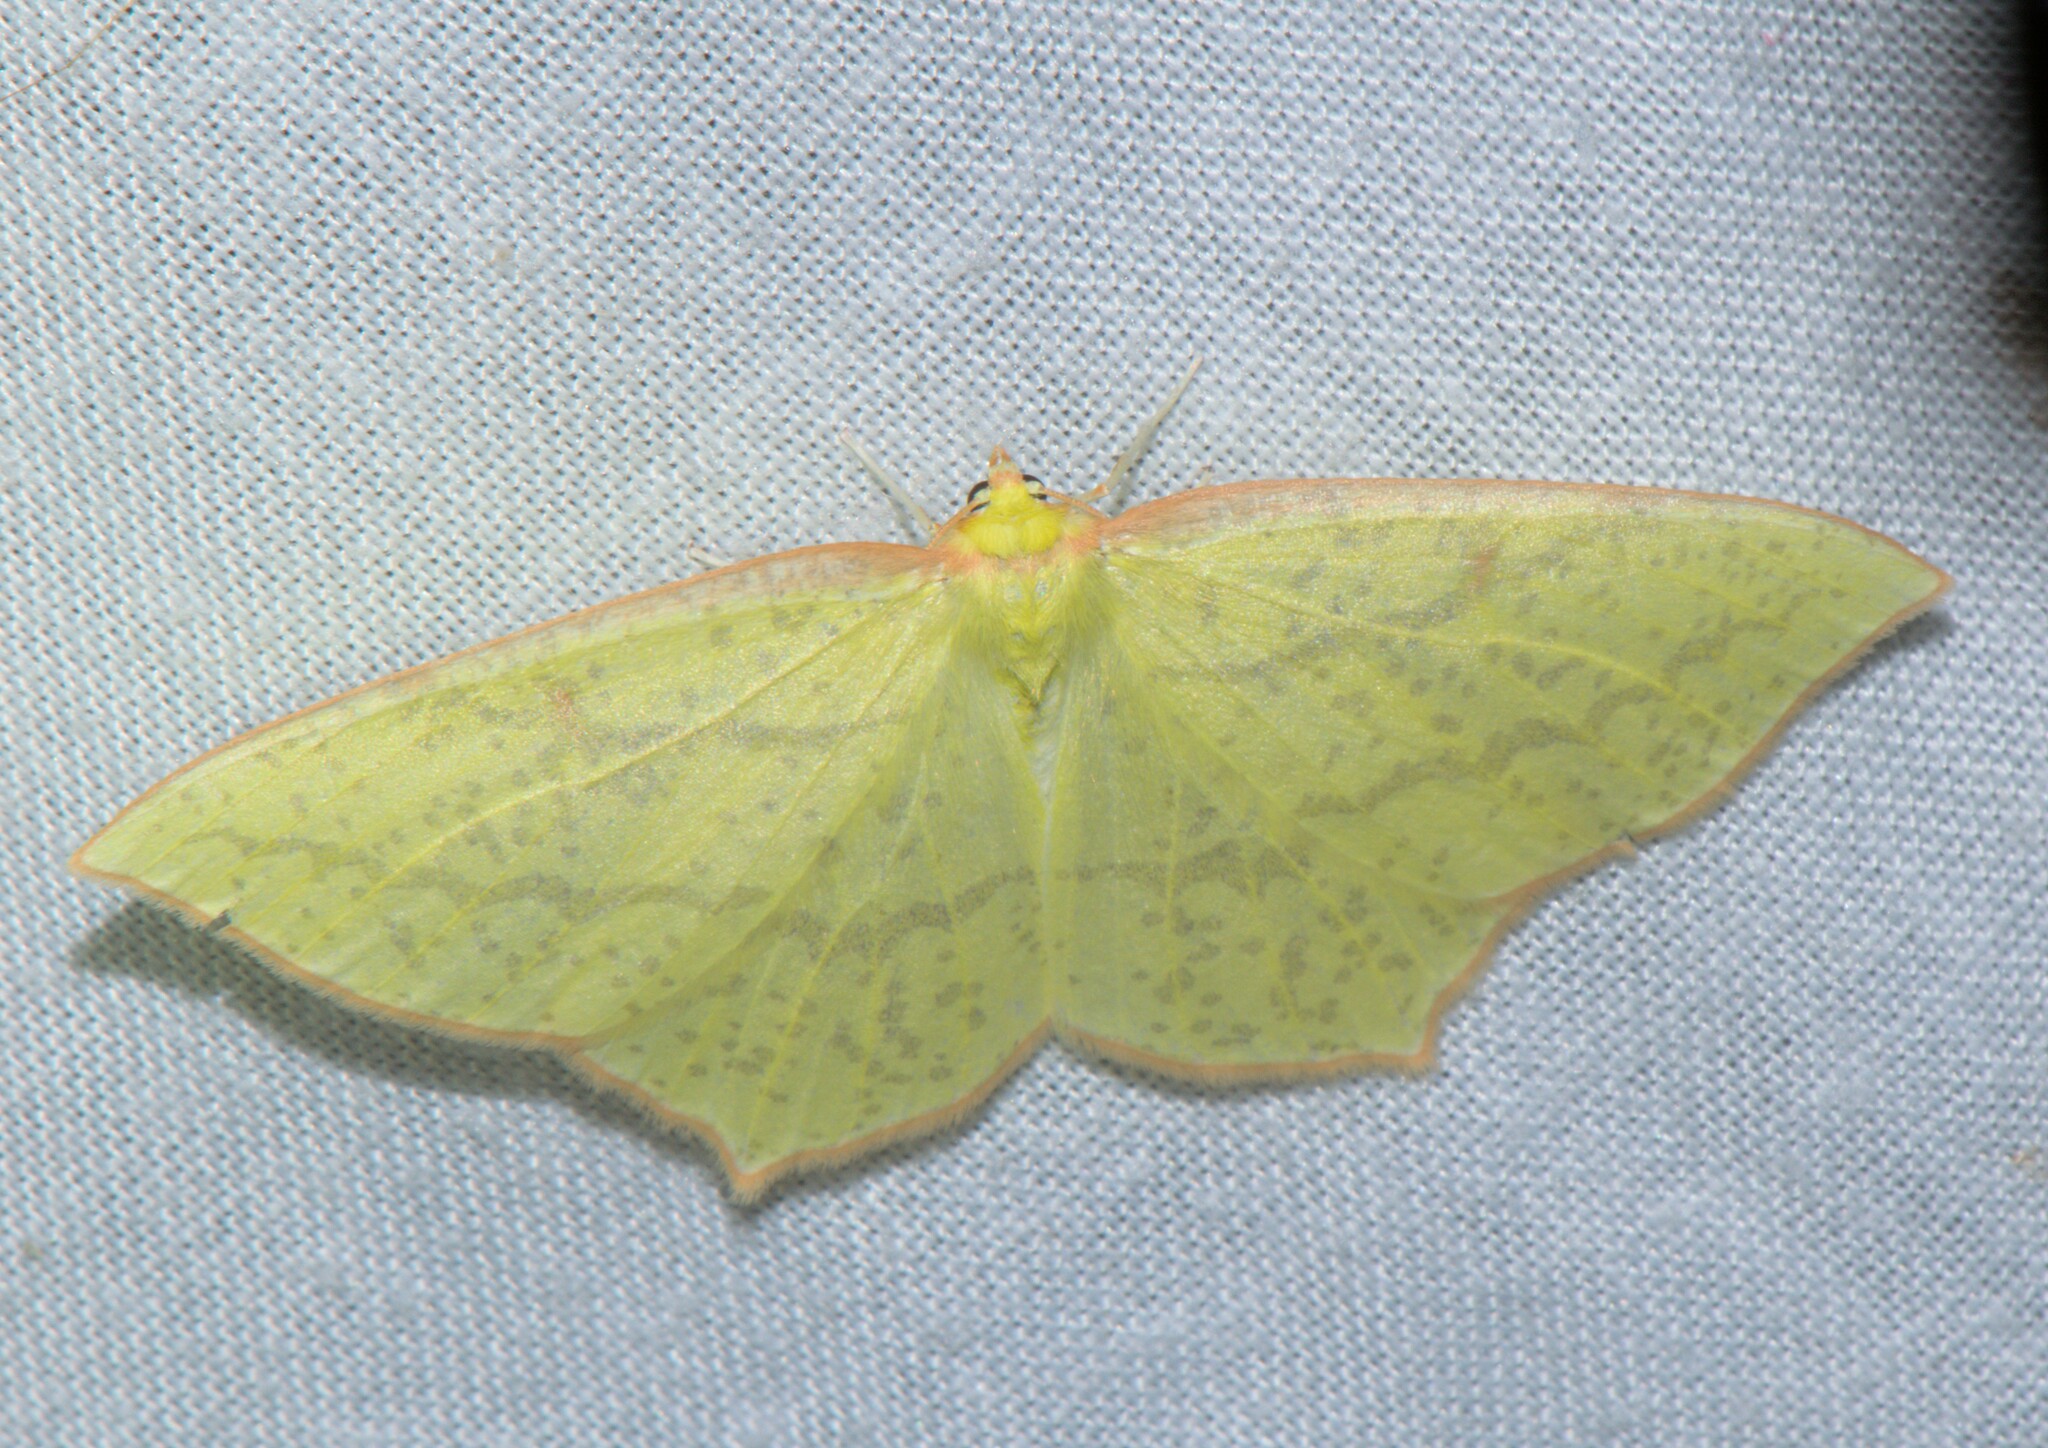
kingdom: Animalia
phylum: Arthropoda
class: Insecta
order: Lepidoptera
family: Geometridae
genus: Sirinopteryx
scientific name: Sirinopteryx rufivinctata
